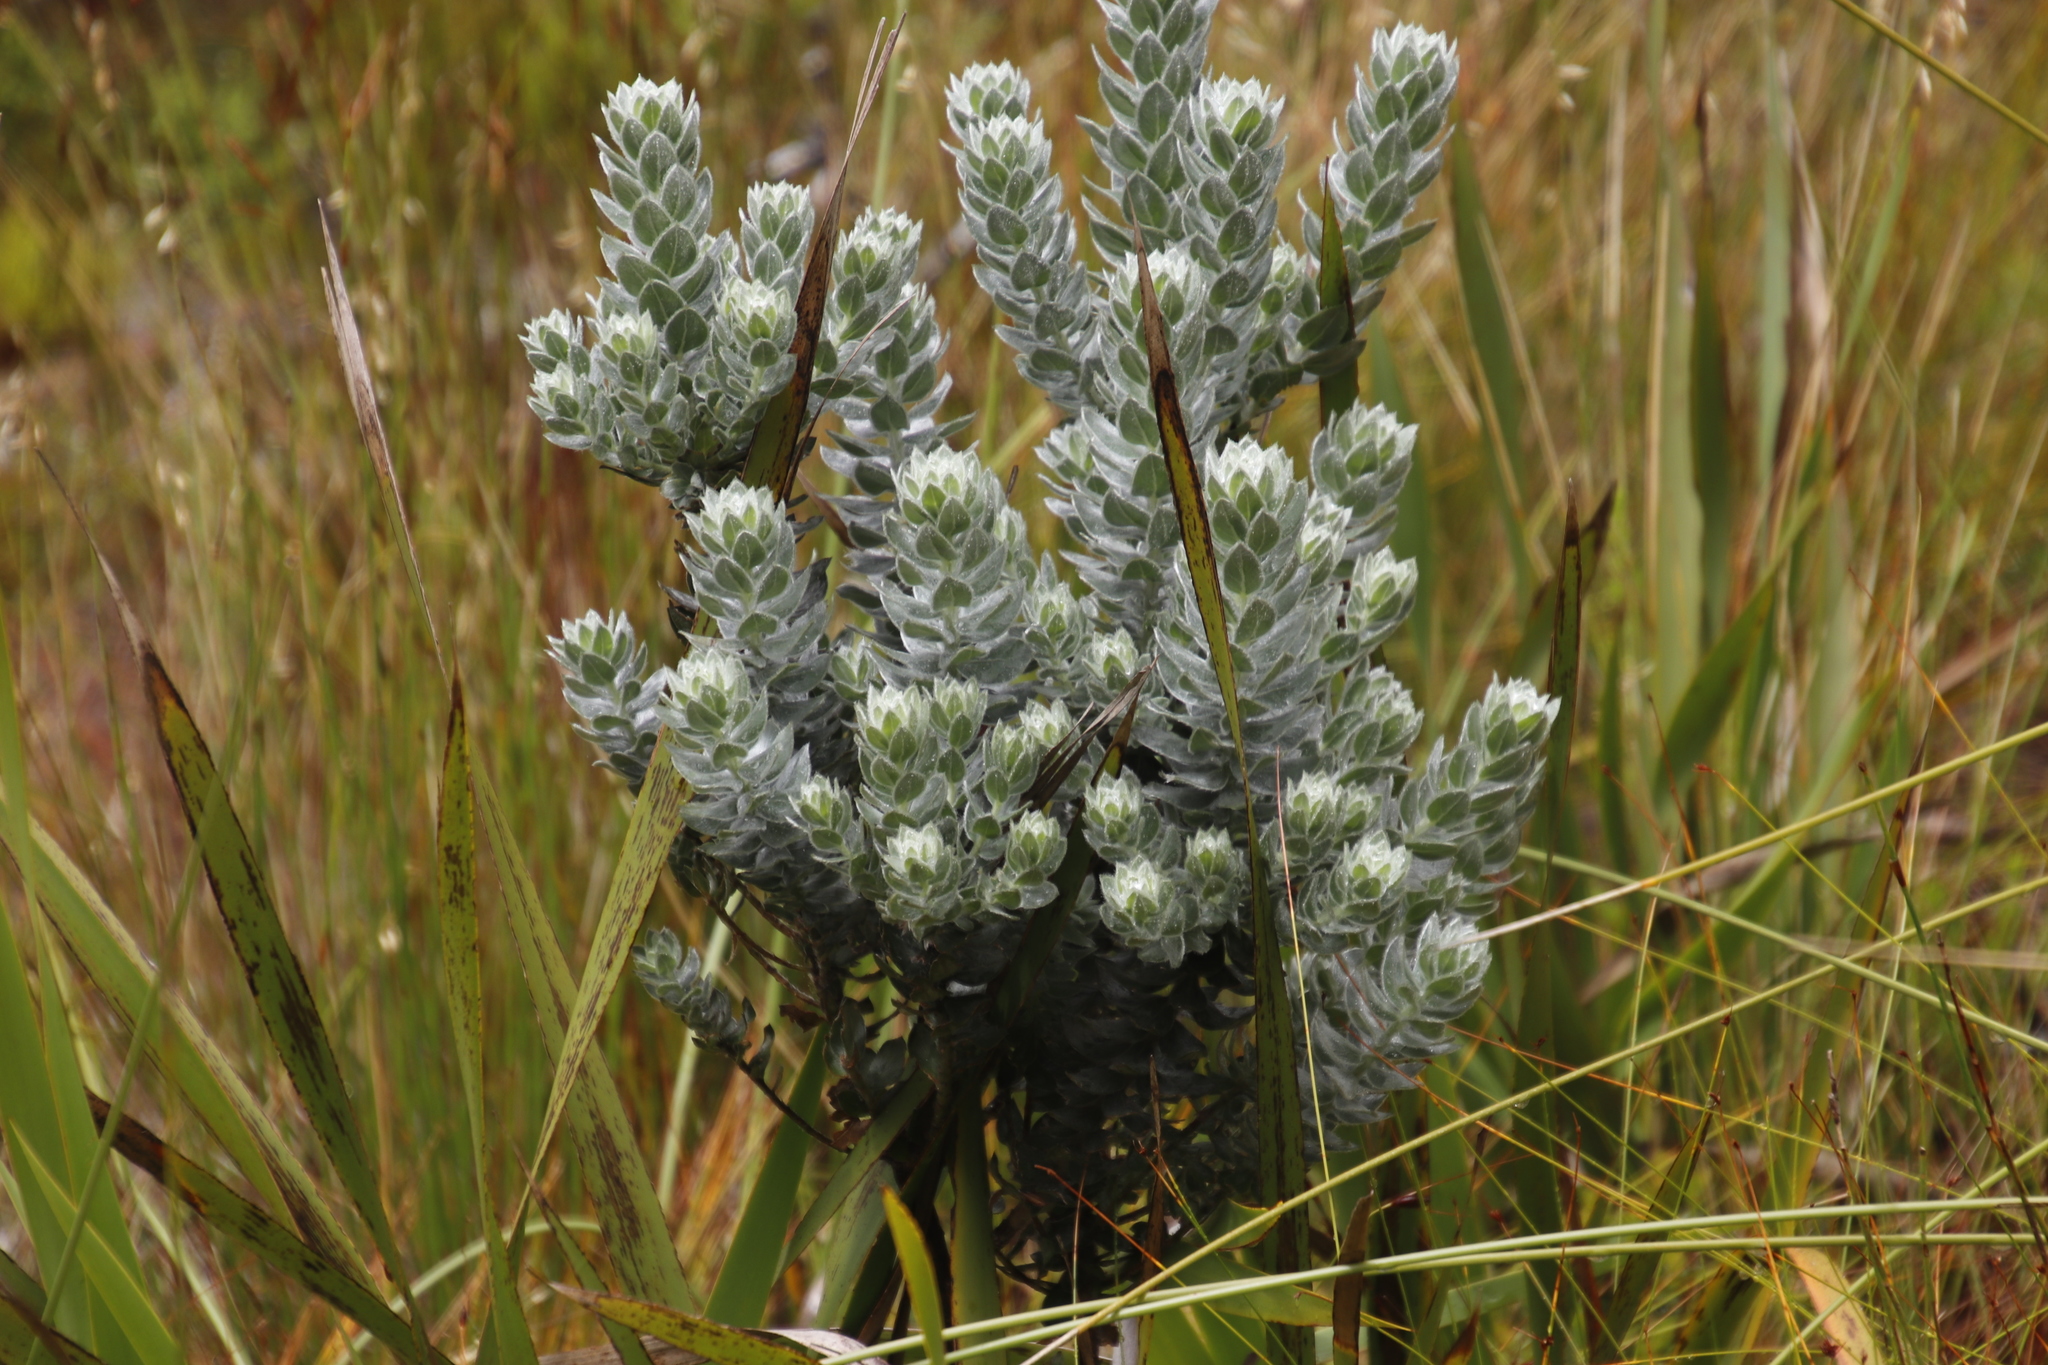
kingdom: Plantae
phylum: Tracheophyta
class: Magnoliopsida
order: Fabales
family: Fabaceae
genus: Xiphotheca
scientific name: Xiphotheca fruticosa
